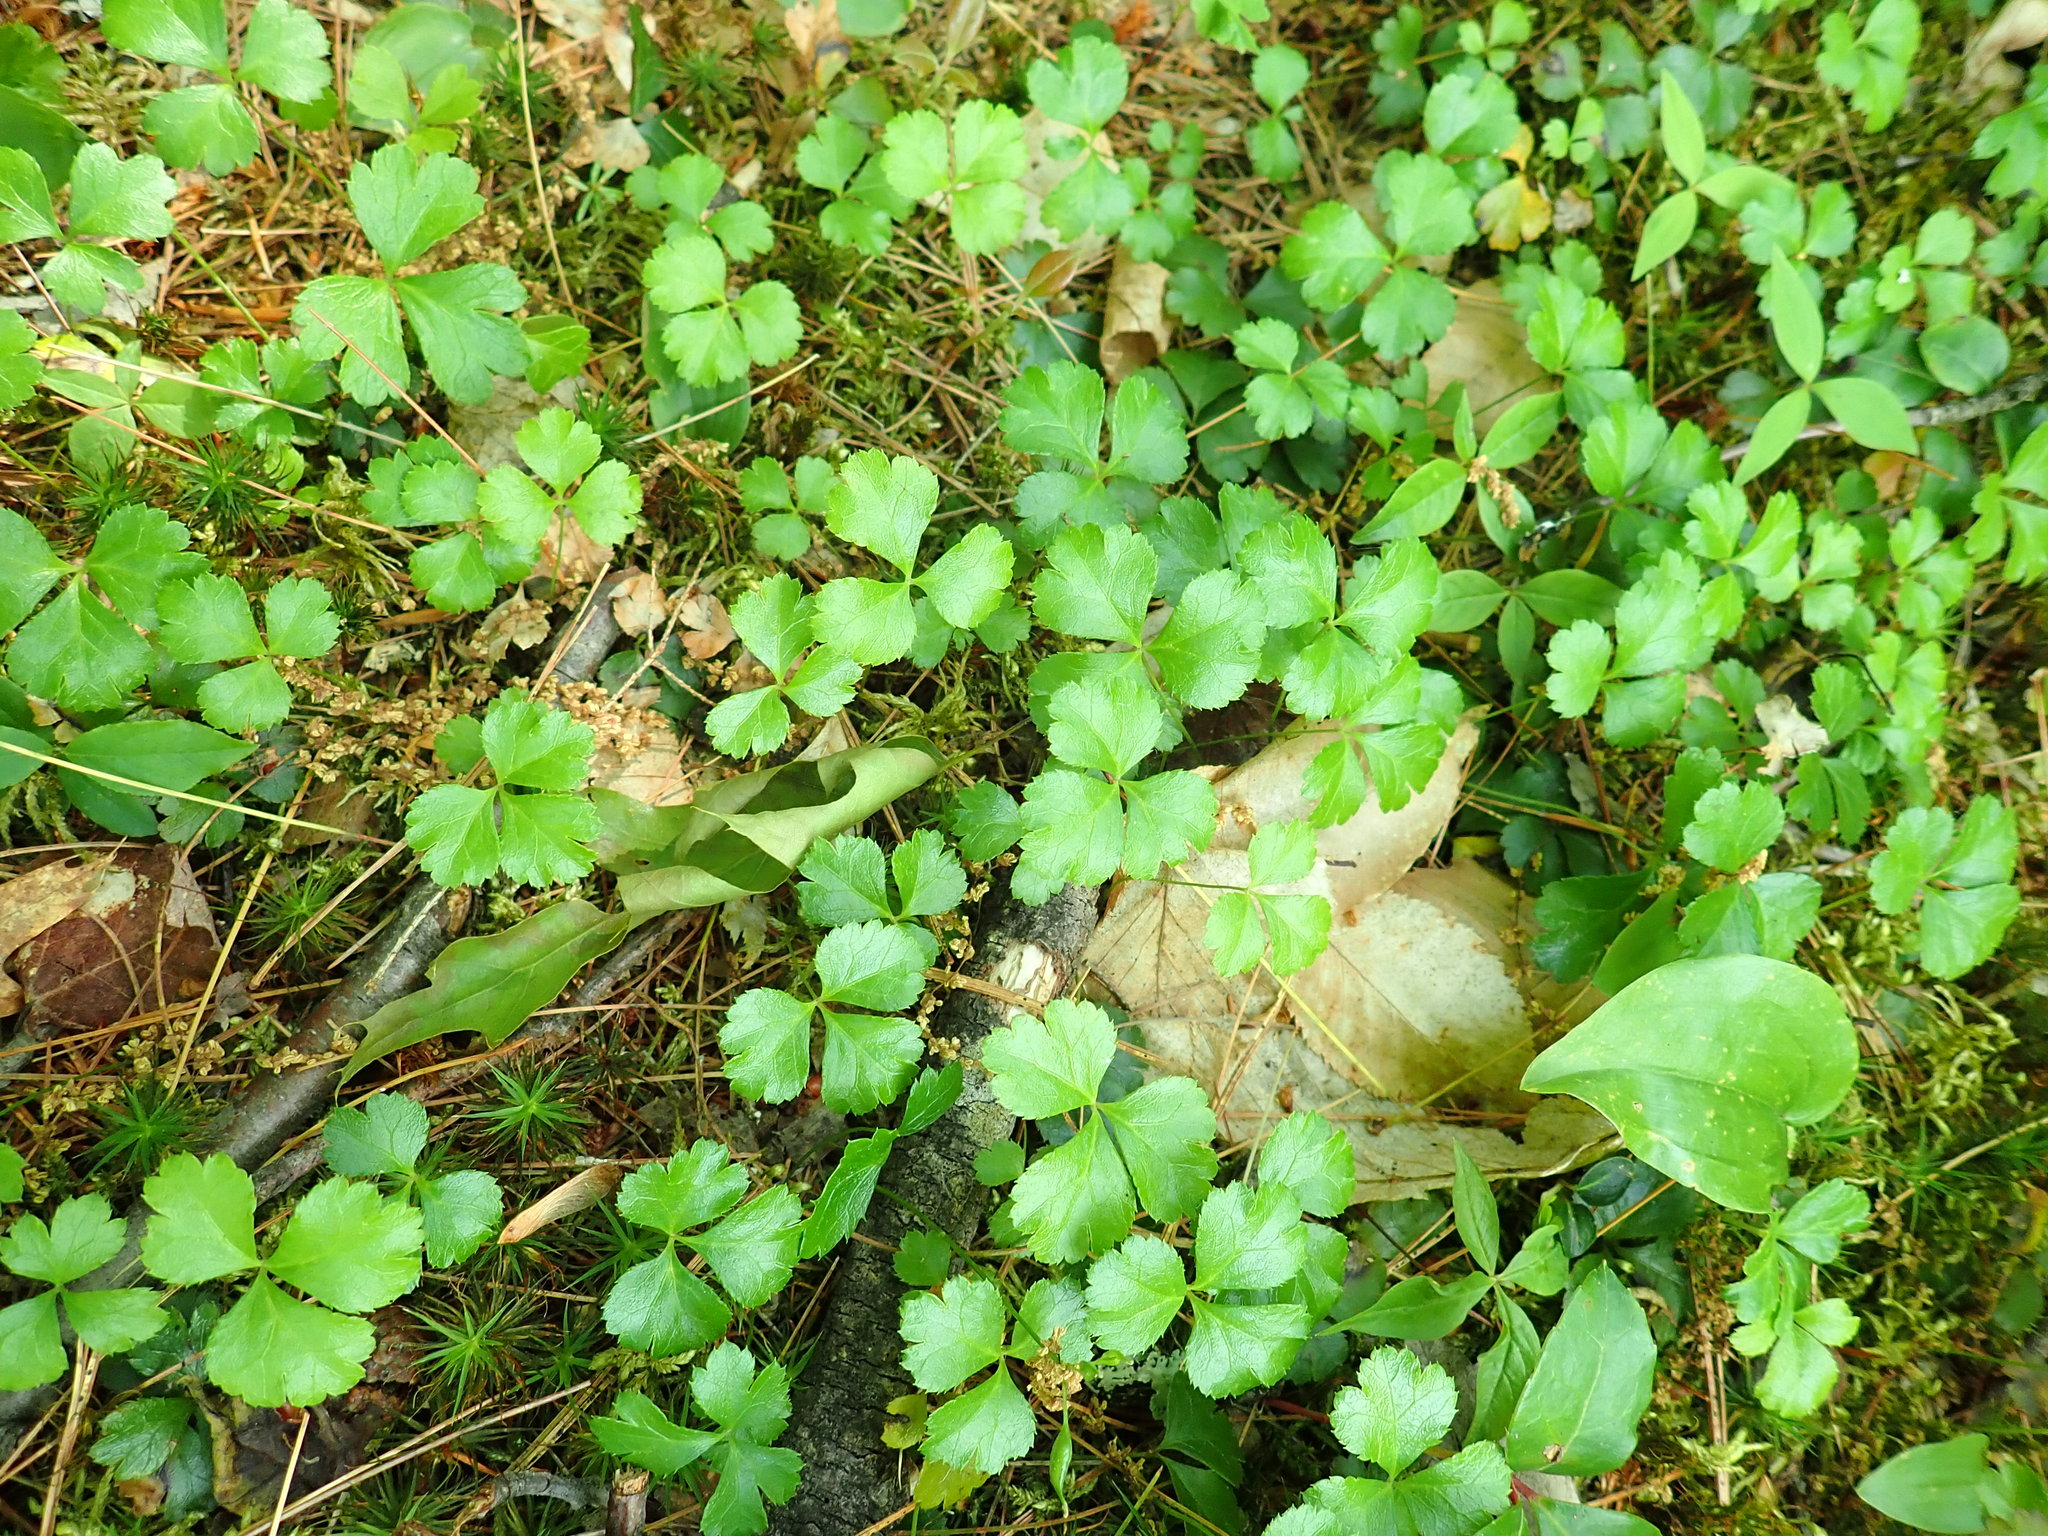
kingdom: Plantae
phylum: Tracheophyta
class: Magnoliopsida
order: Ranunculales
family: Ranunculaceae
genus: Coptis
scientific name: Coptis trifolia
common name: Canker-root
